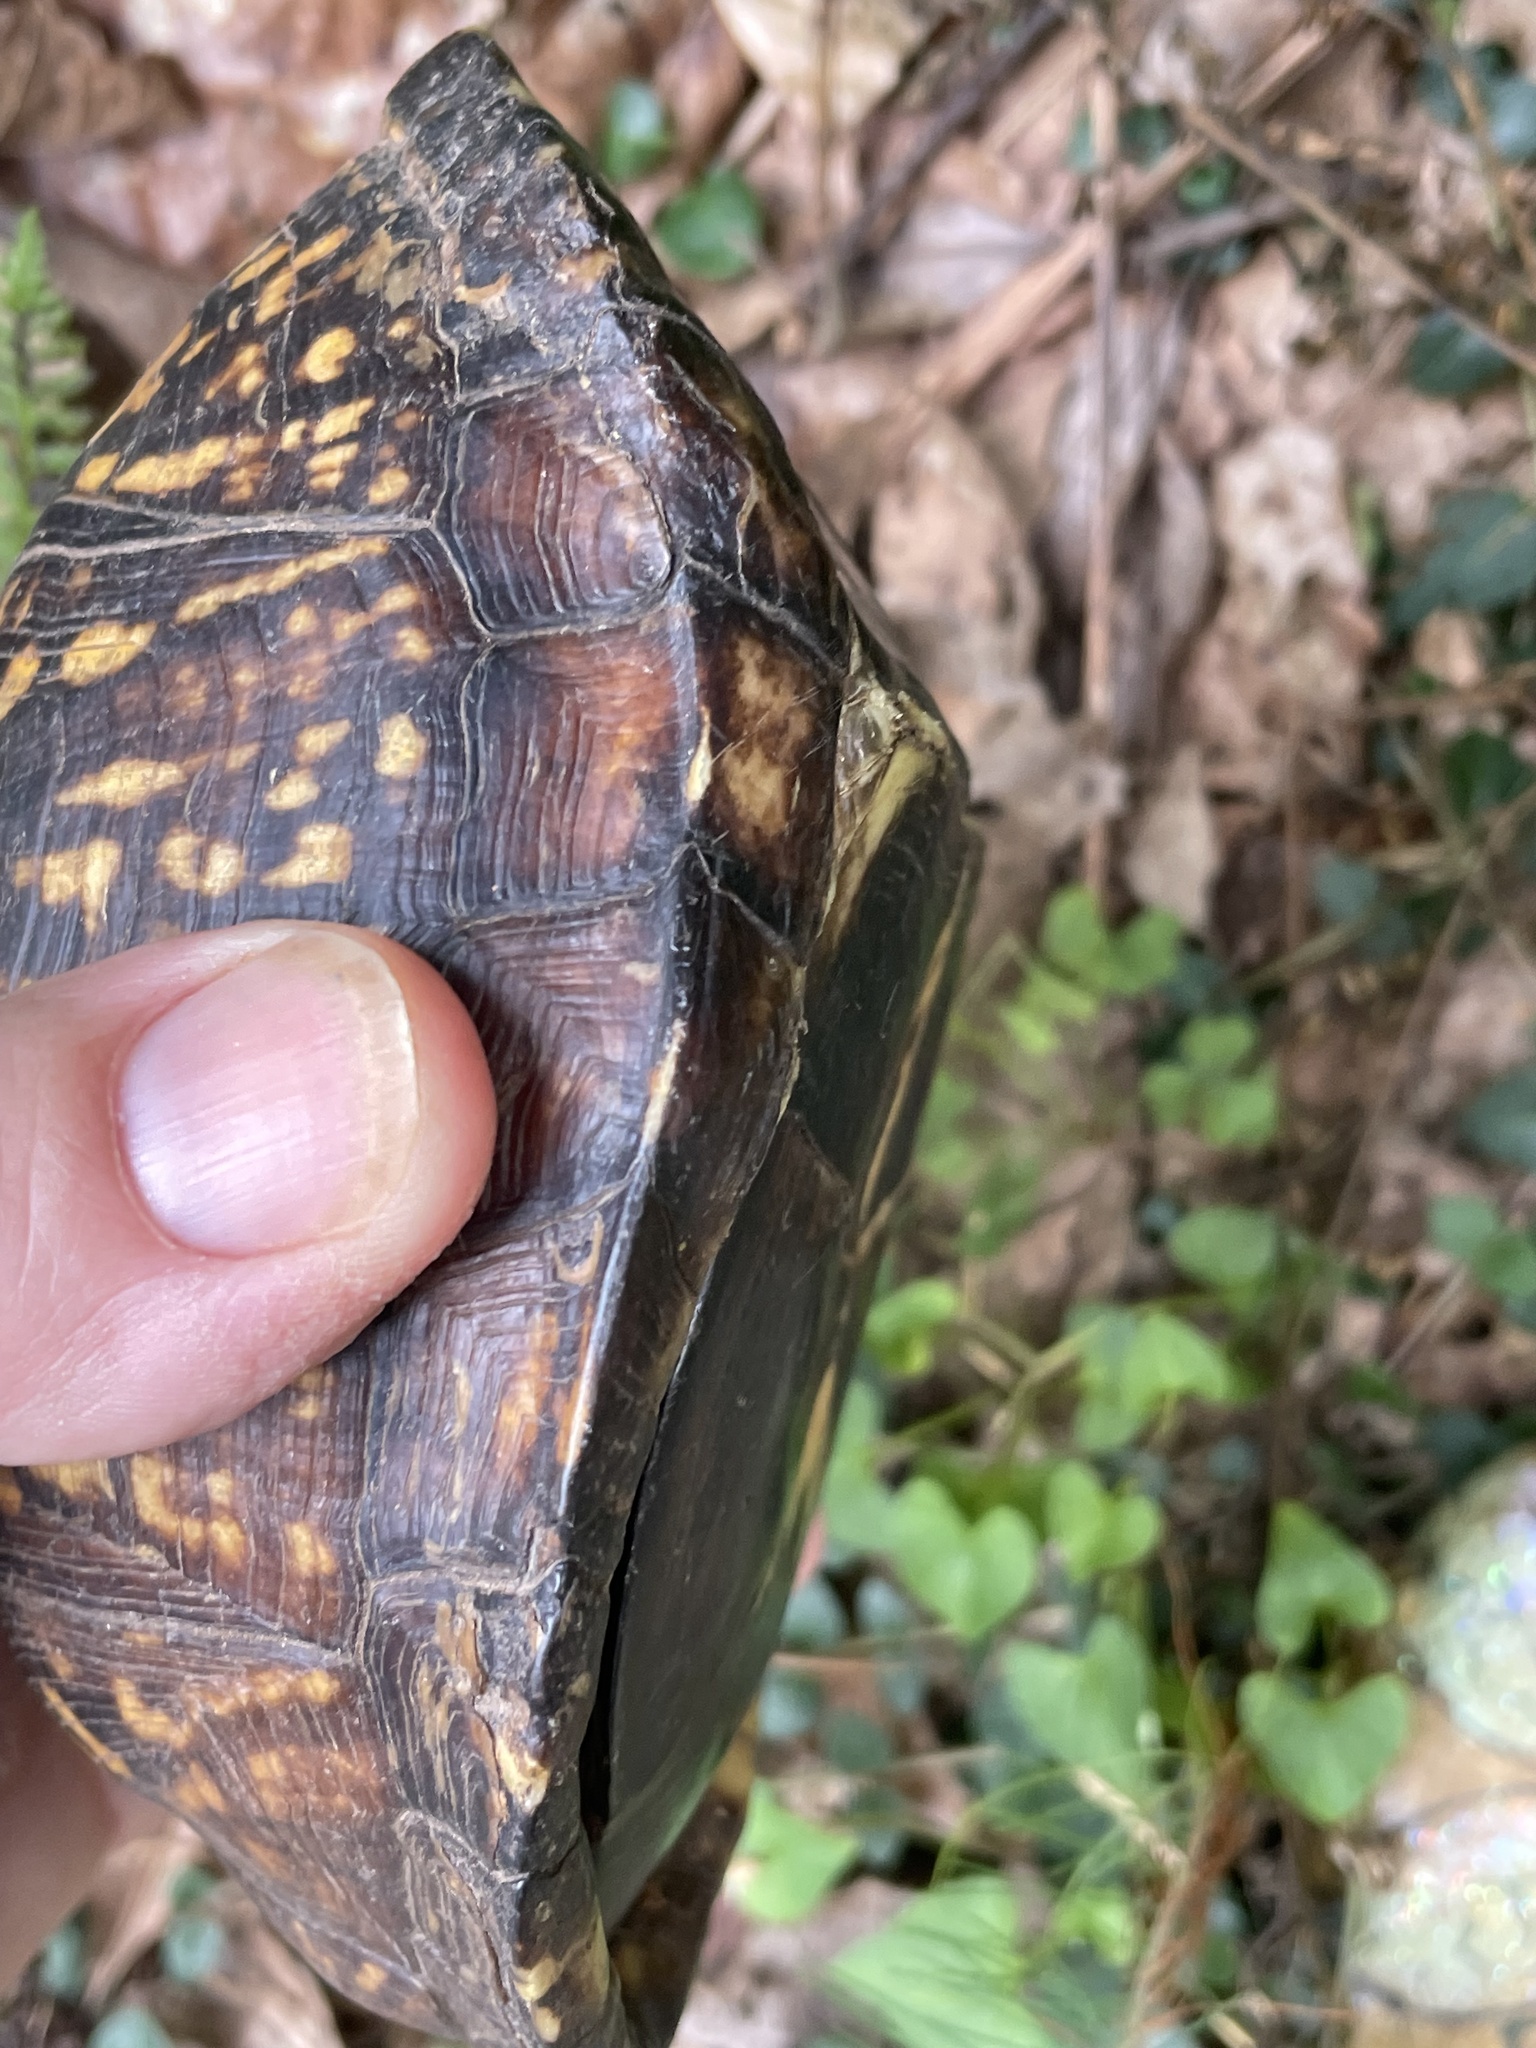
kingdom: Animalia
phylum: Chordata
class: Testudines
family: Emydidae
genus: Terrapene
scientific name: Terrapene carolina
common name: Common box turtle
